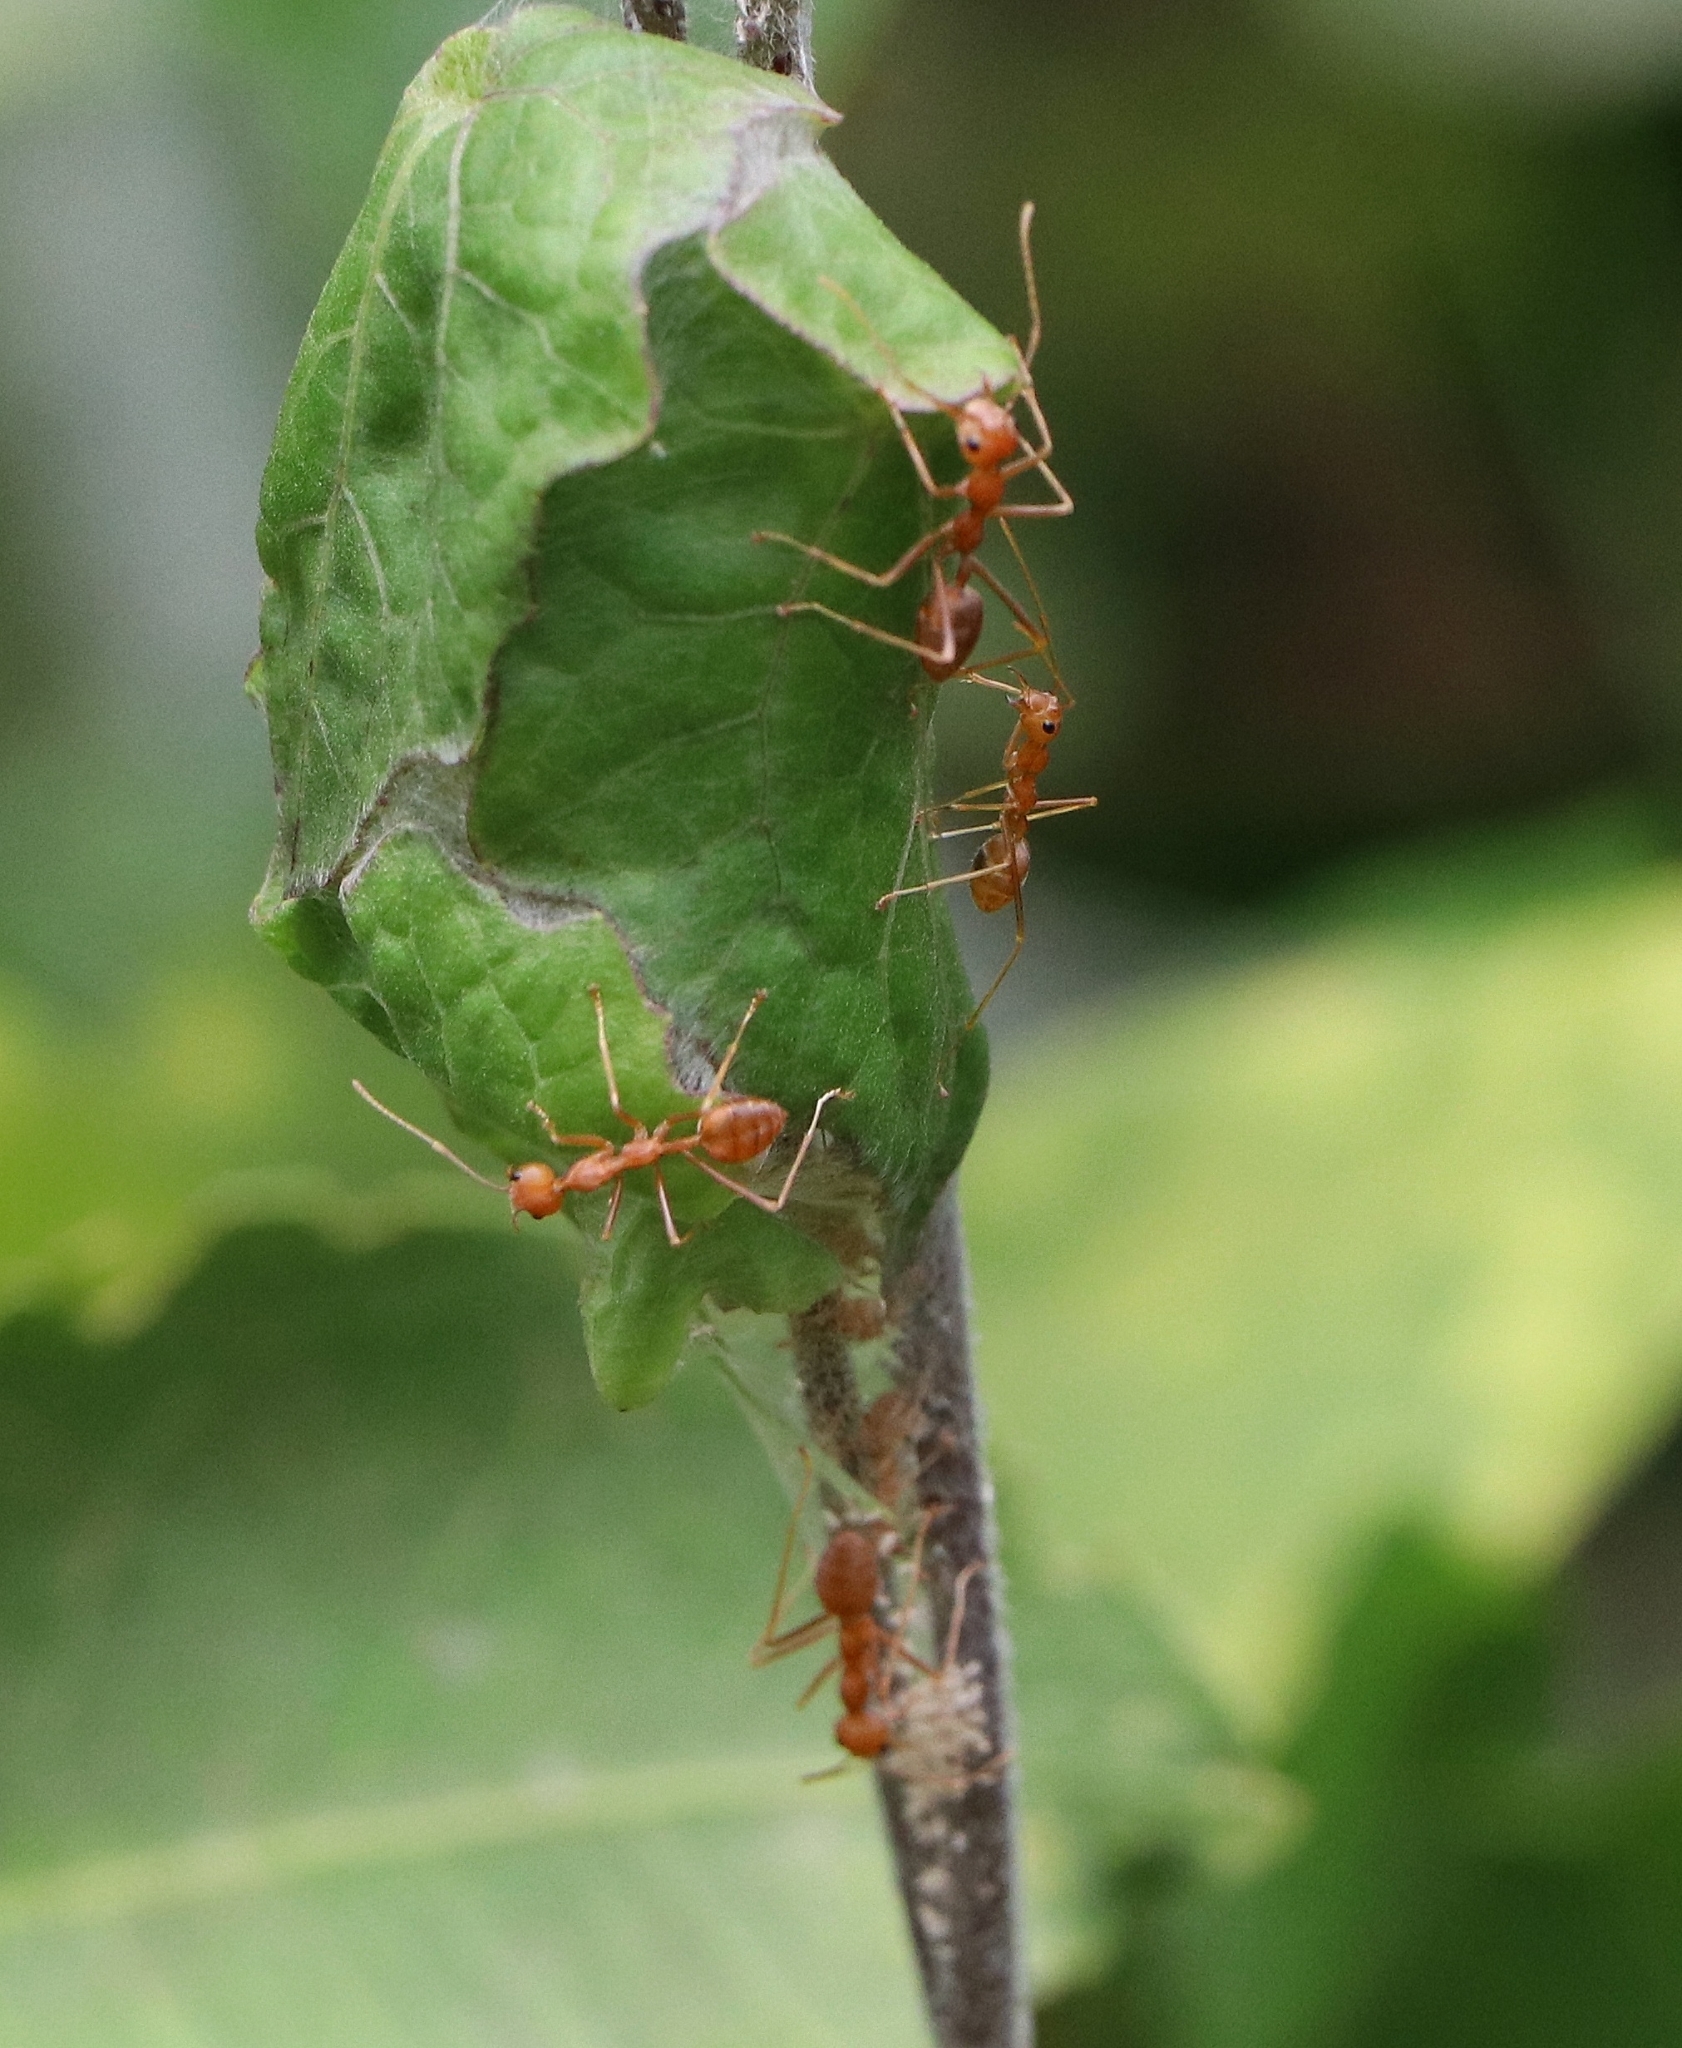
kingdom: Animalia
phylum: Arthropoda
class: Insecta
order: Hymenoptera
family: Formicidae
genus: Oecophylla
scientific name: Oecophylla smaragdina
